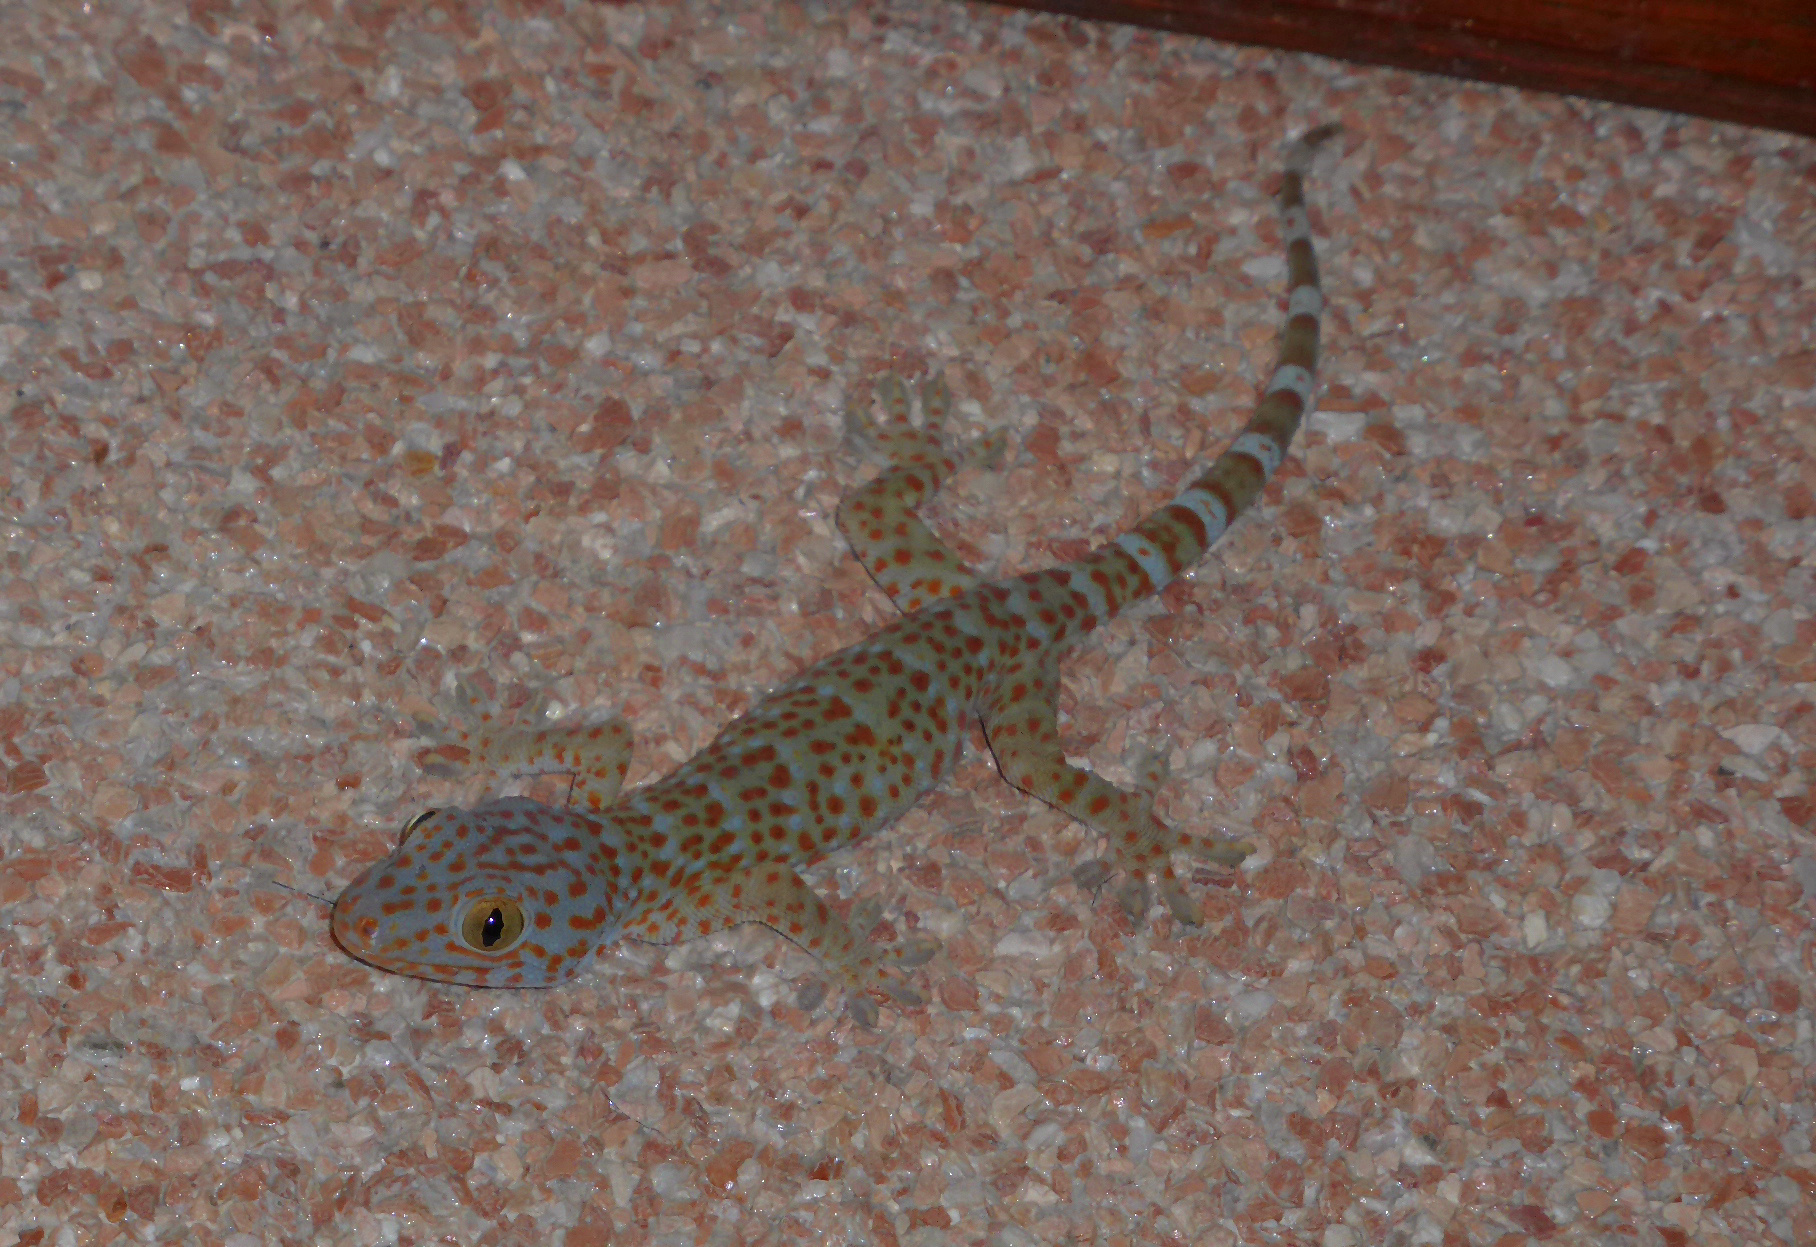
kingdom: Animalia
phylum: Chordata
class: Squamata
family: Gekkonidae
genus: Gekko
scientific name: Gekko gecko
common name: Tokay gecko
